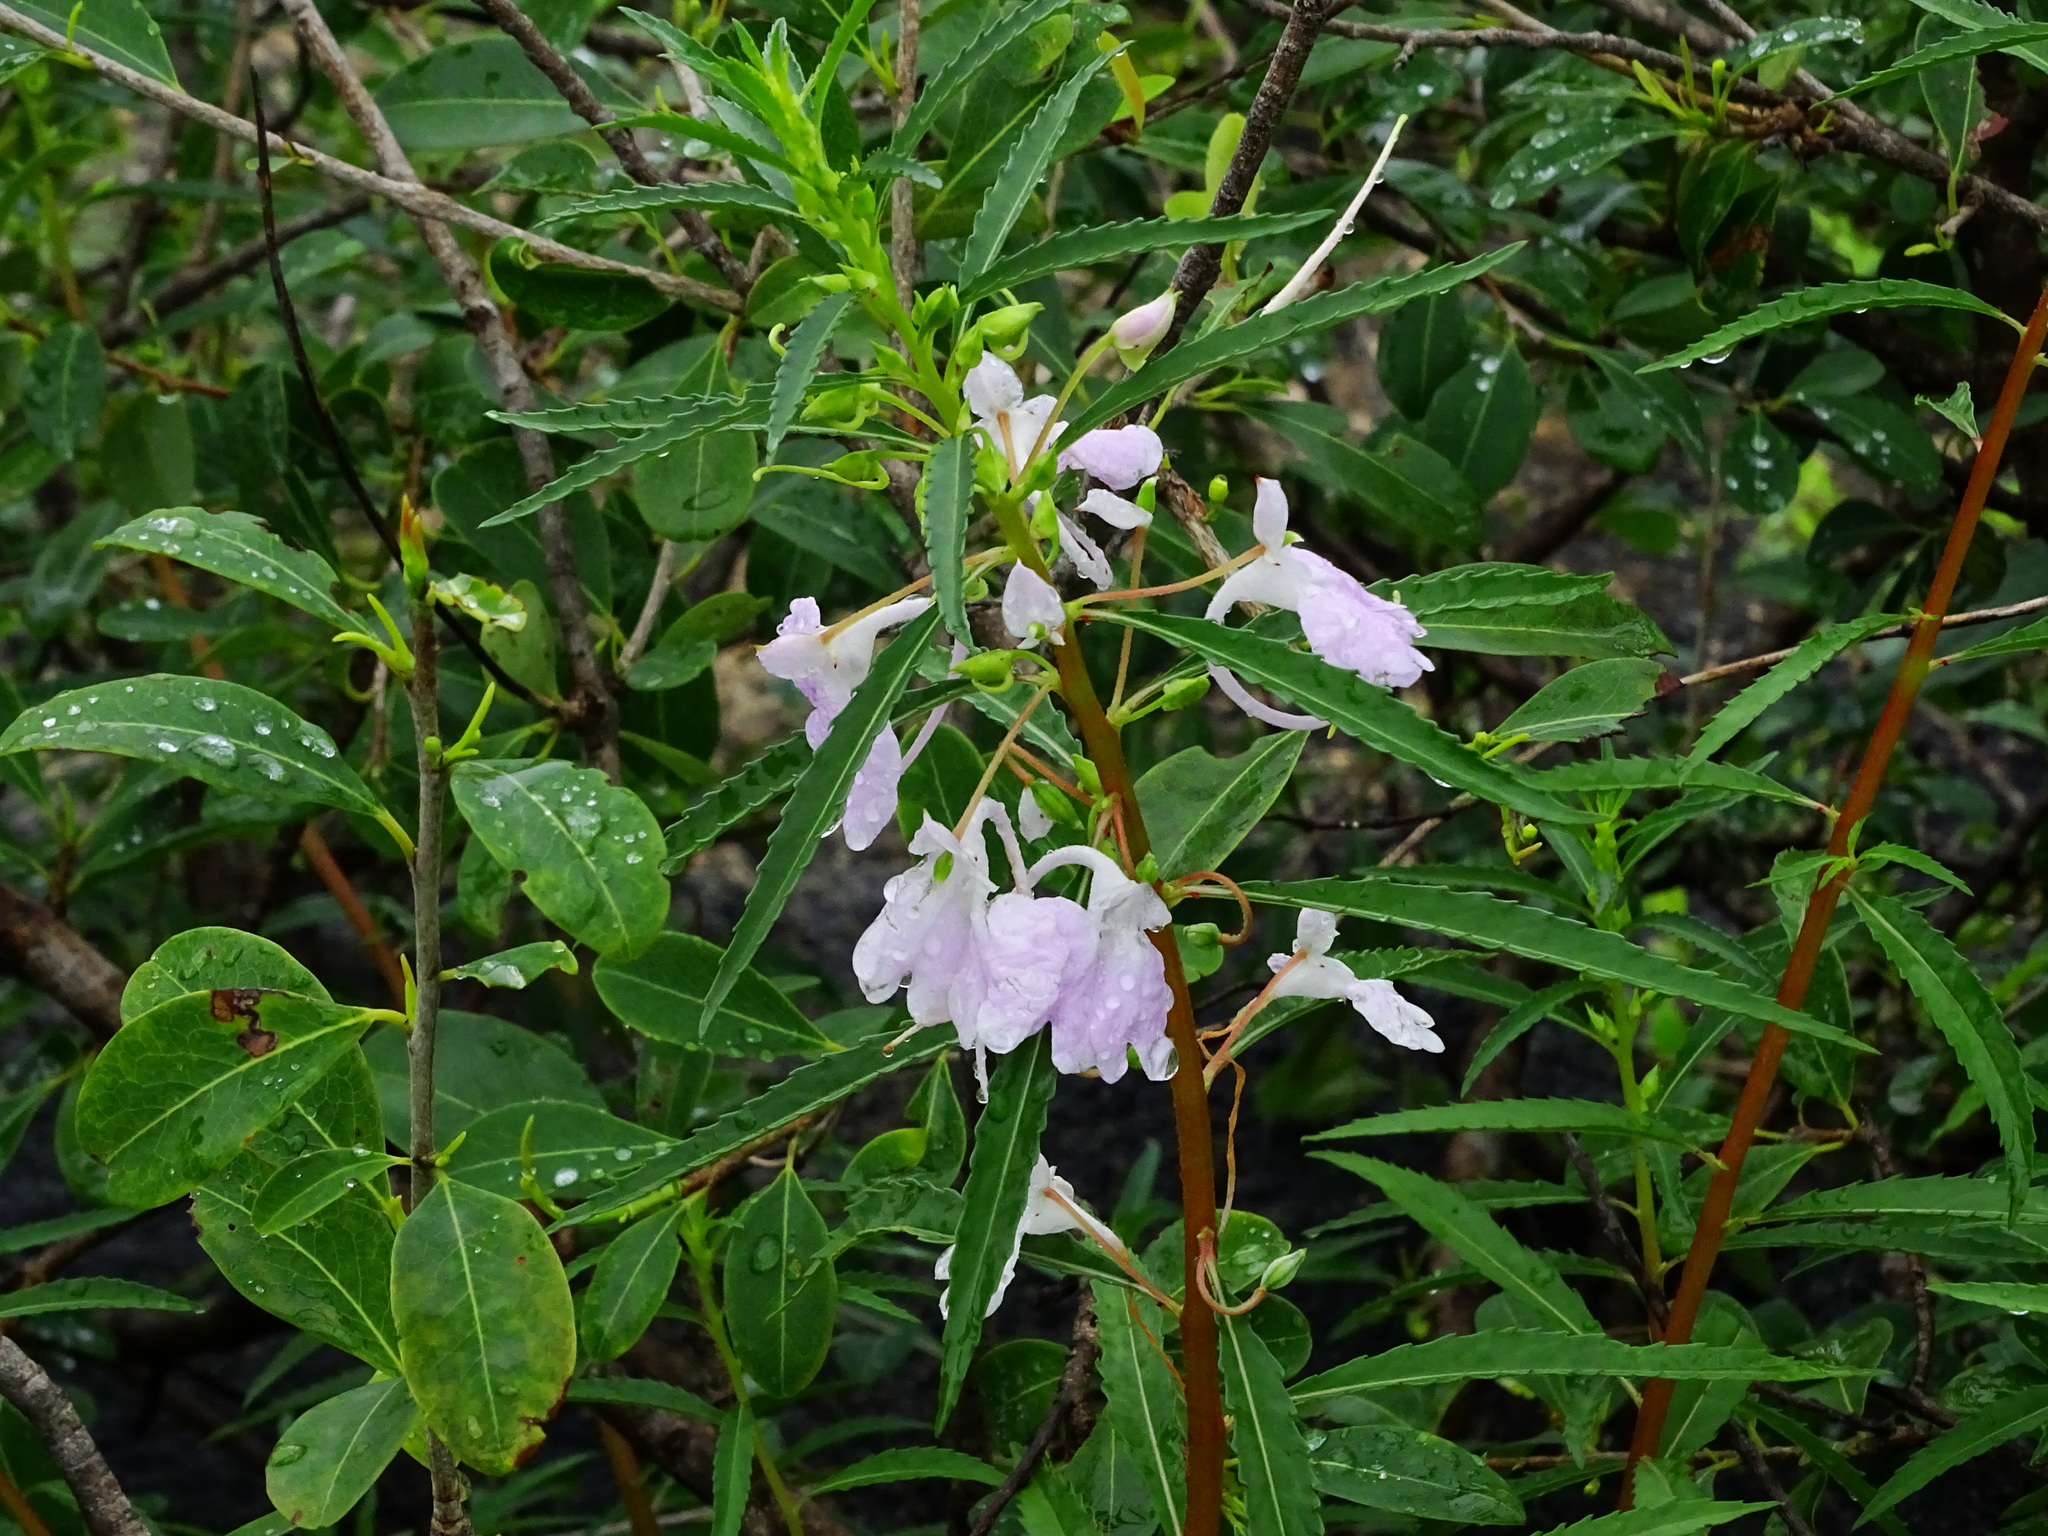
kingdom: Plantae
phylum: Tracheophyta
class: Magnoliopsida
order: Ericales
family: Balsaminaceae
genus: Impatiens
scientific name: Impatiens balsamina
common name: Balsam
